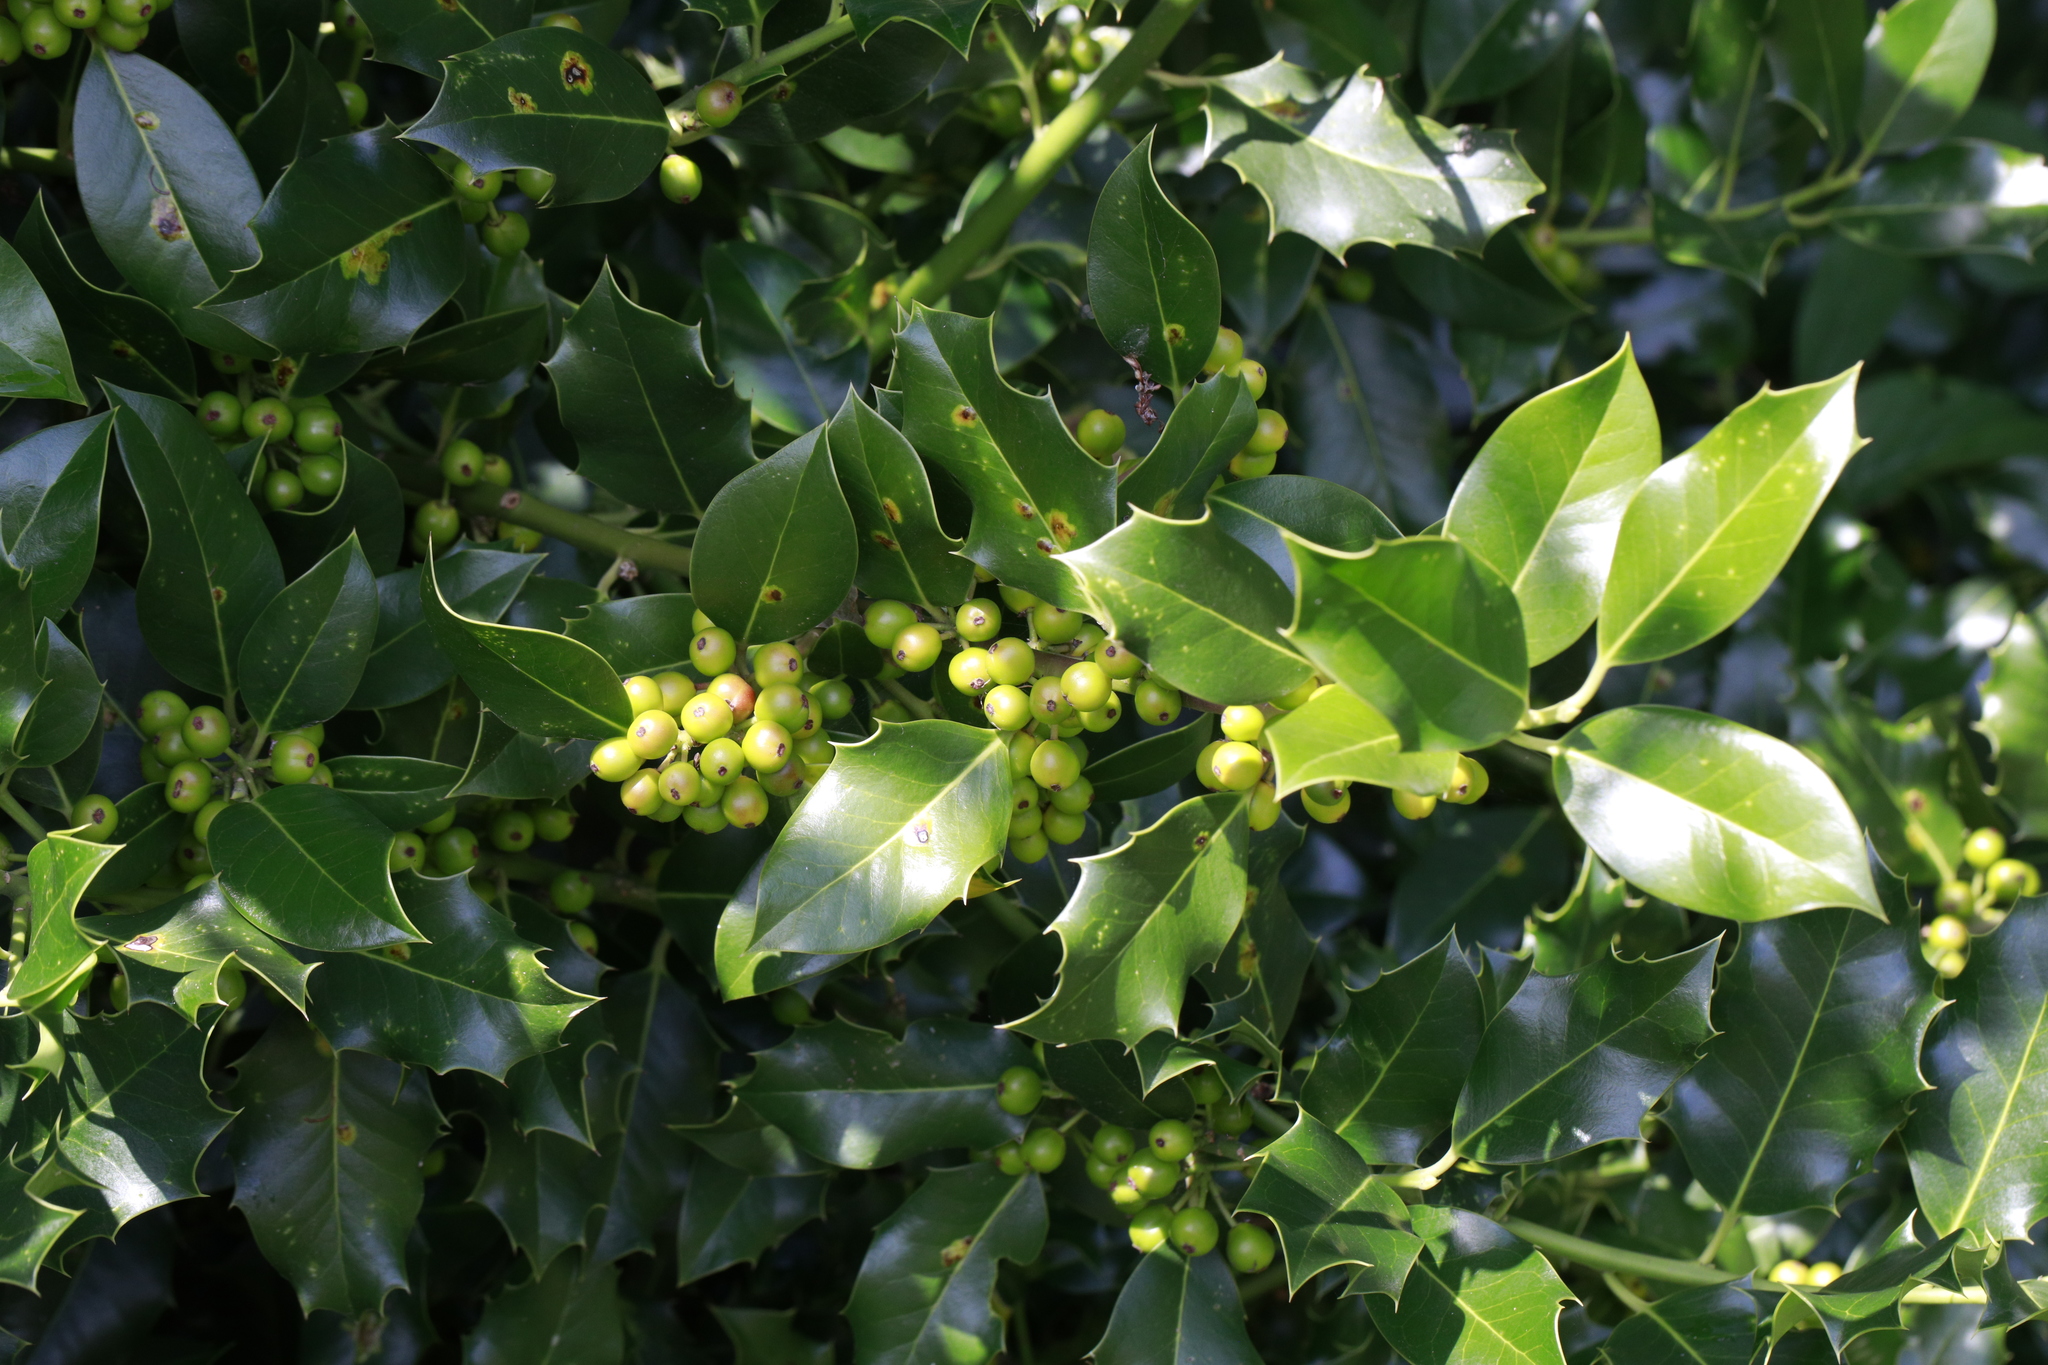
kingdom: Plantae
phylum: Tracheophyta
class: Magnoliopsida
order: Aquifoliales
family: Aquifoliaceae
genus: Ilex
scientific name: Ilex aquifolium
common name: English holly
